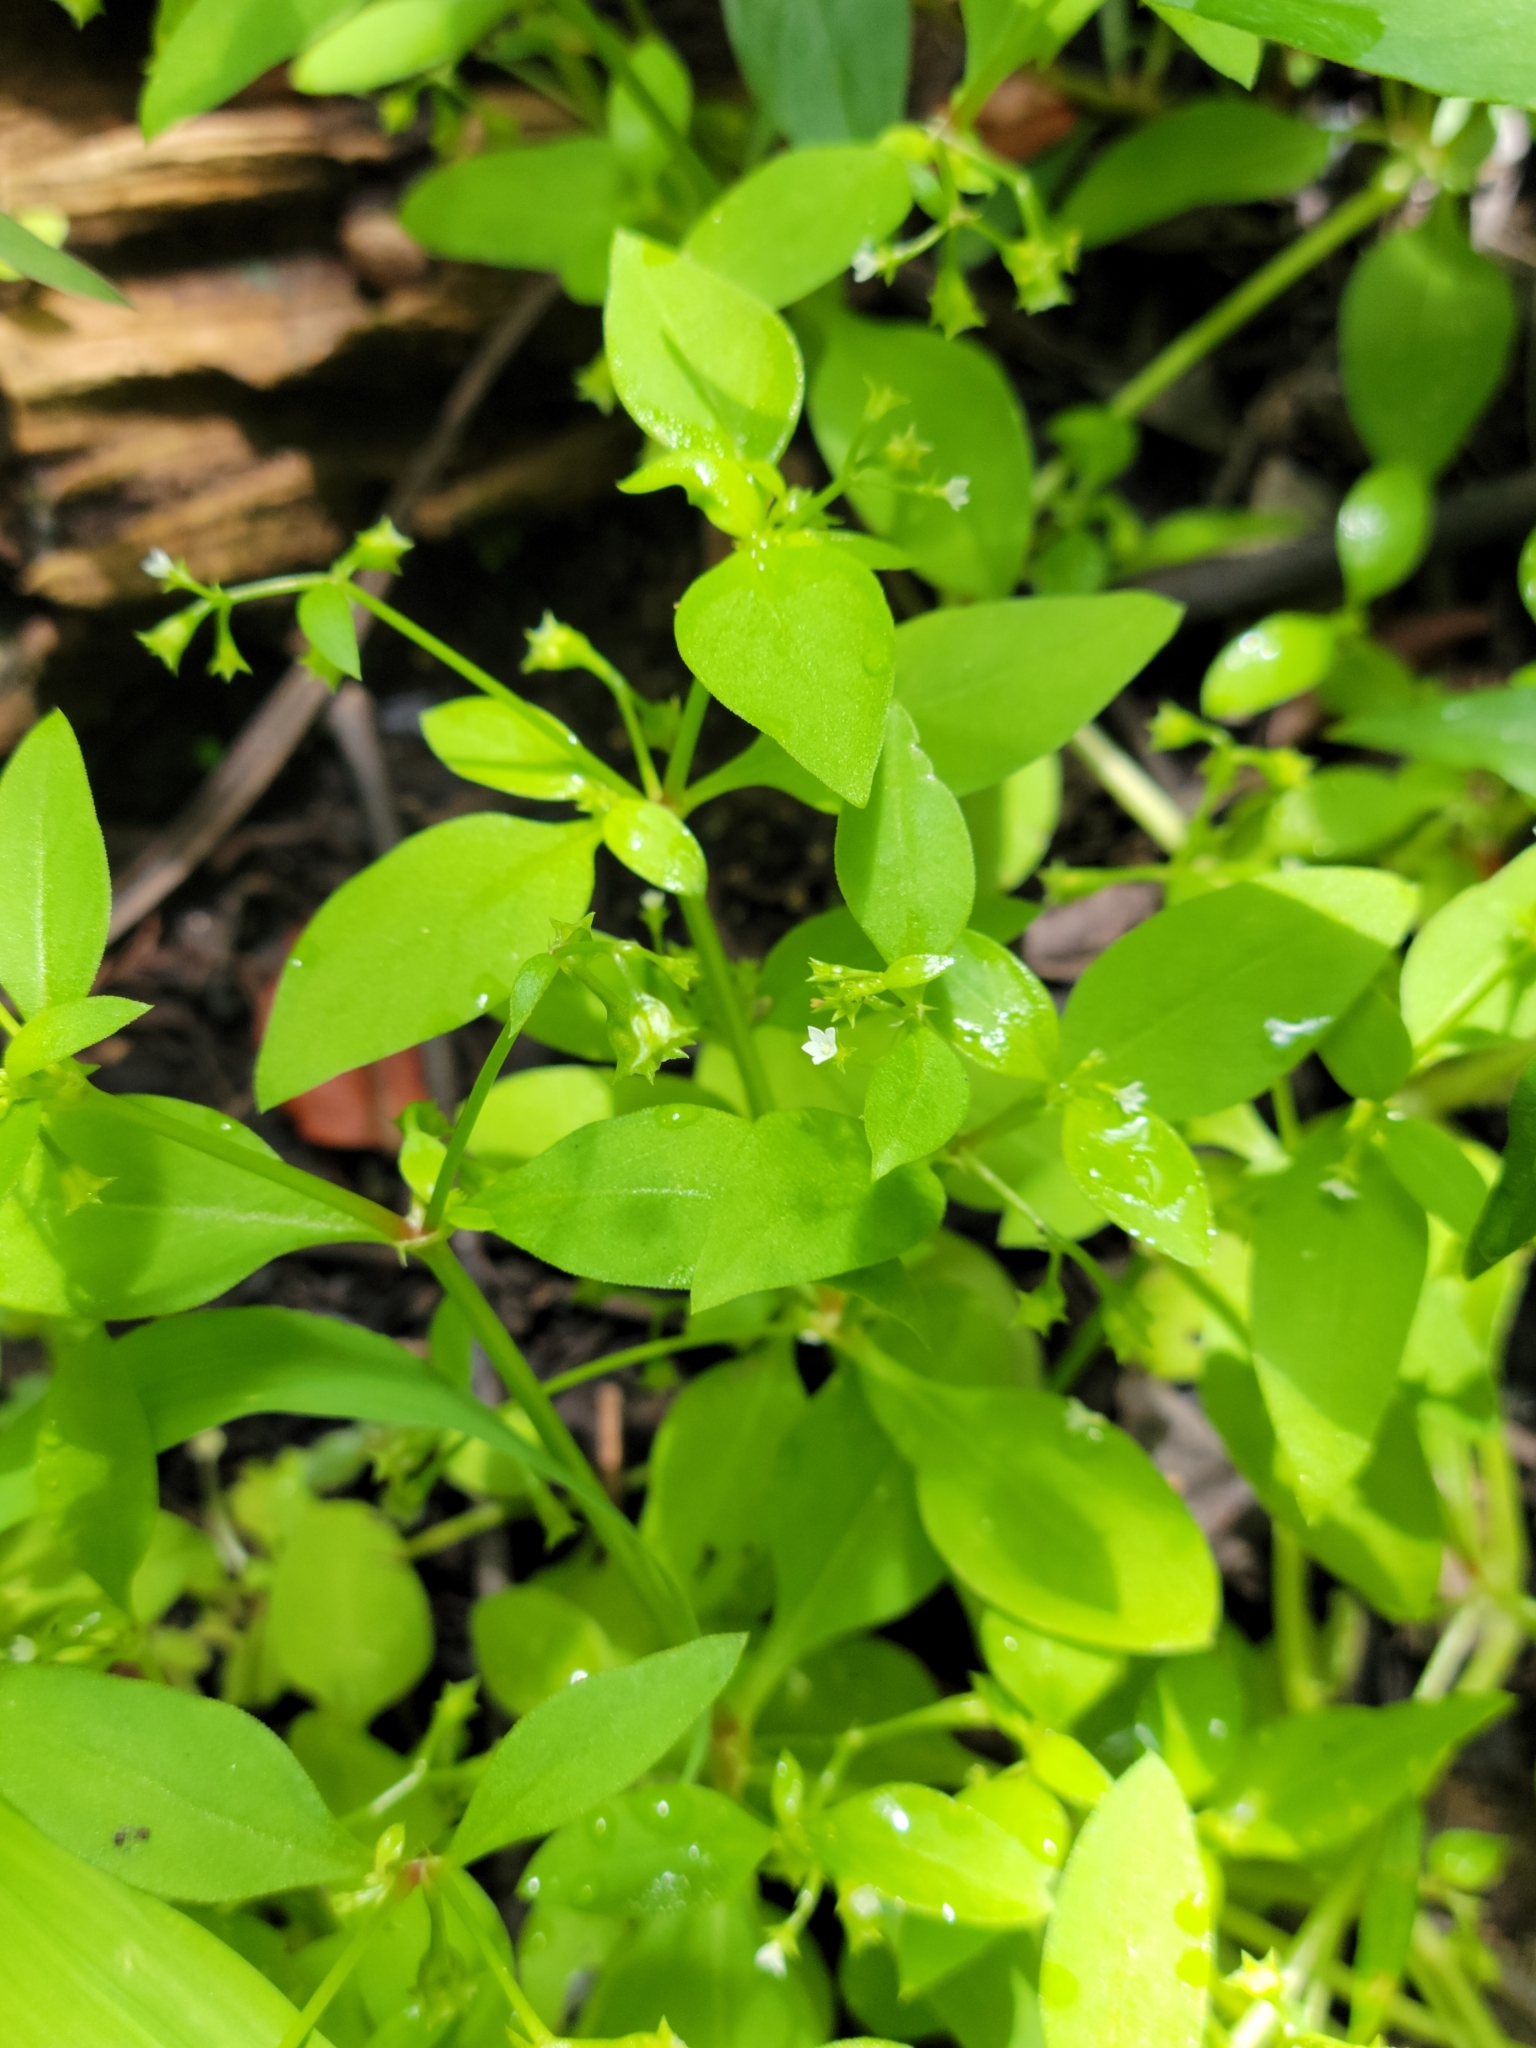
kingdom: Plantae
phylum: Tracheophyta
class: Magnoliopsida
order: Gentianales
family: Rubiaceae
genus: Pentodon
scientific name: Pentodon pentandrus
